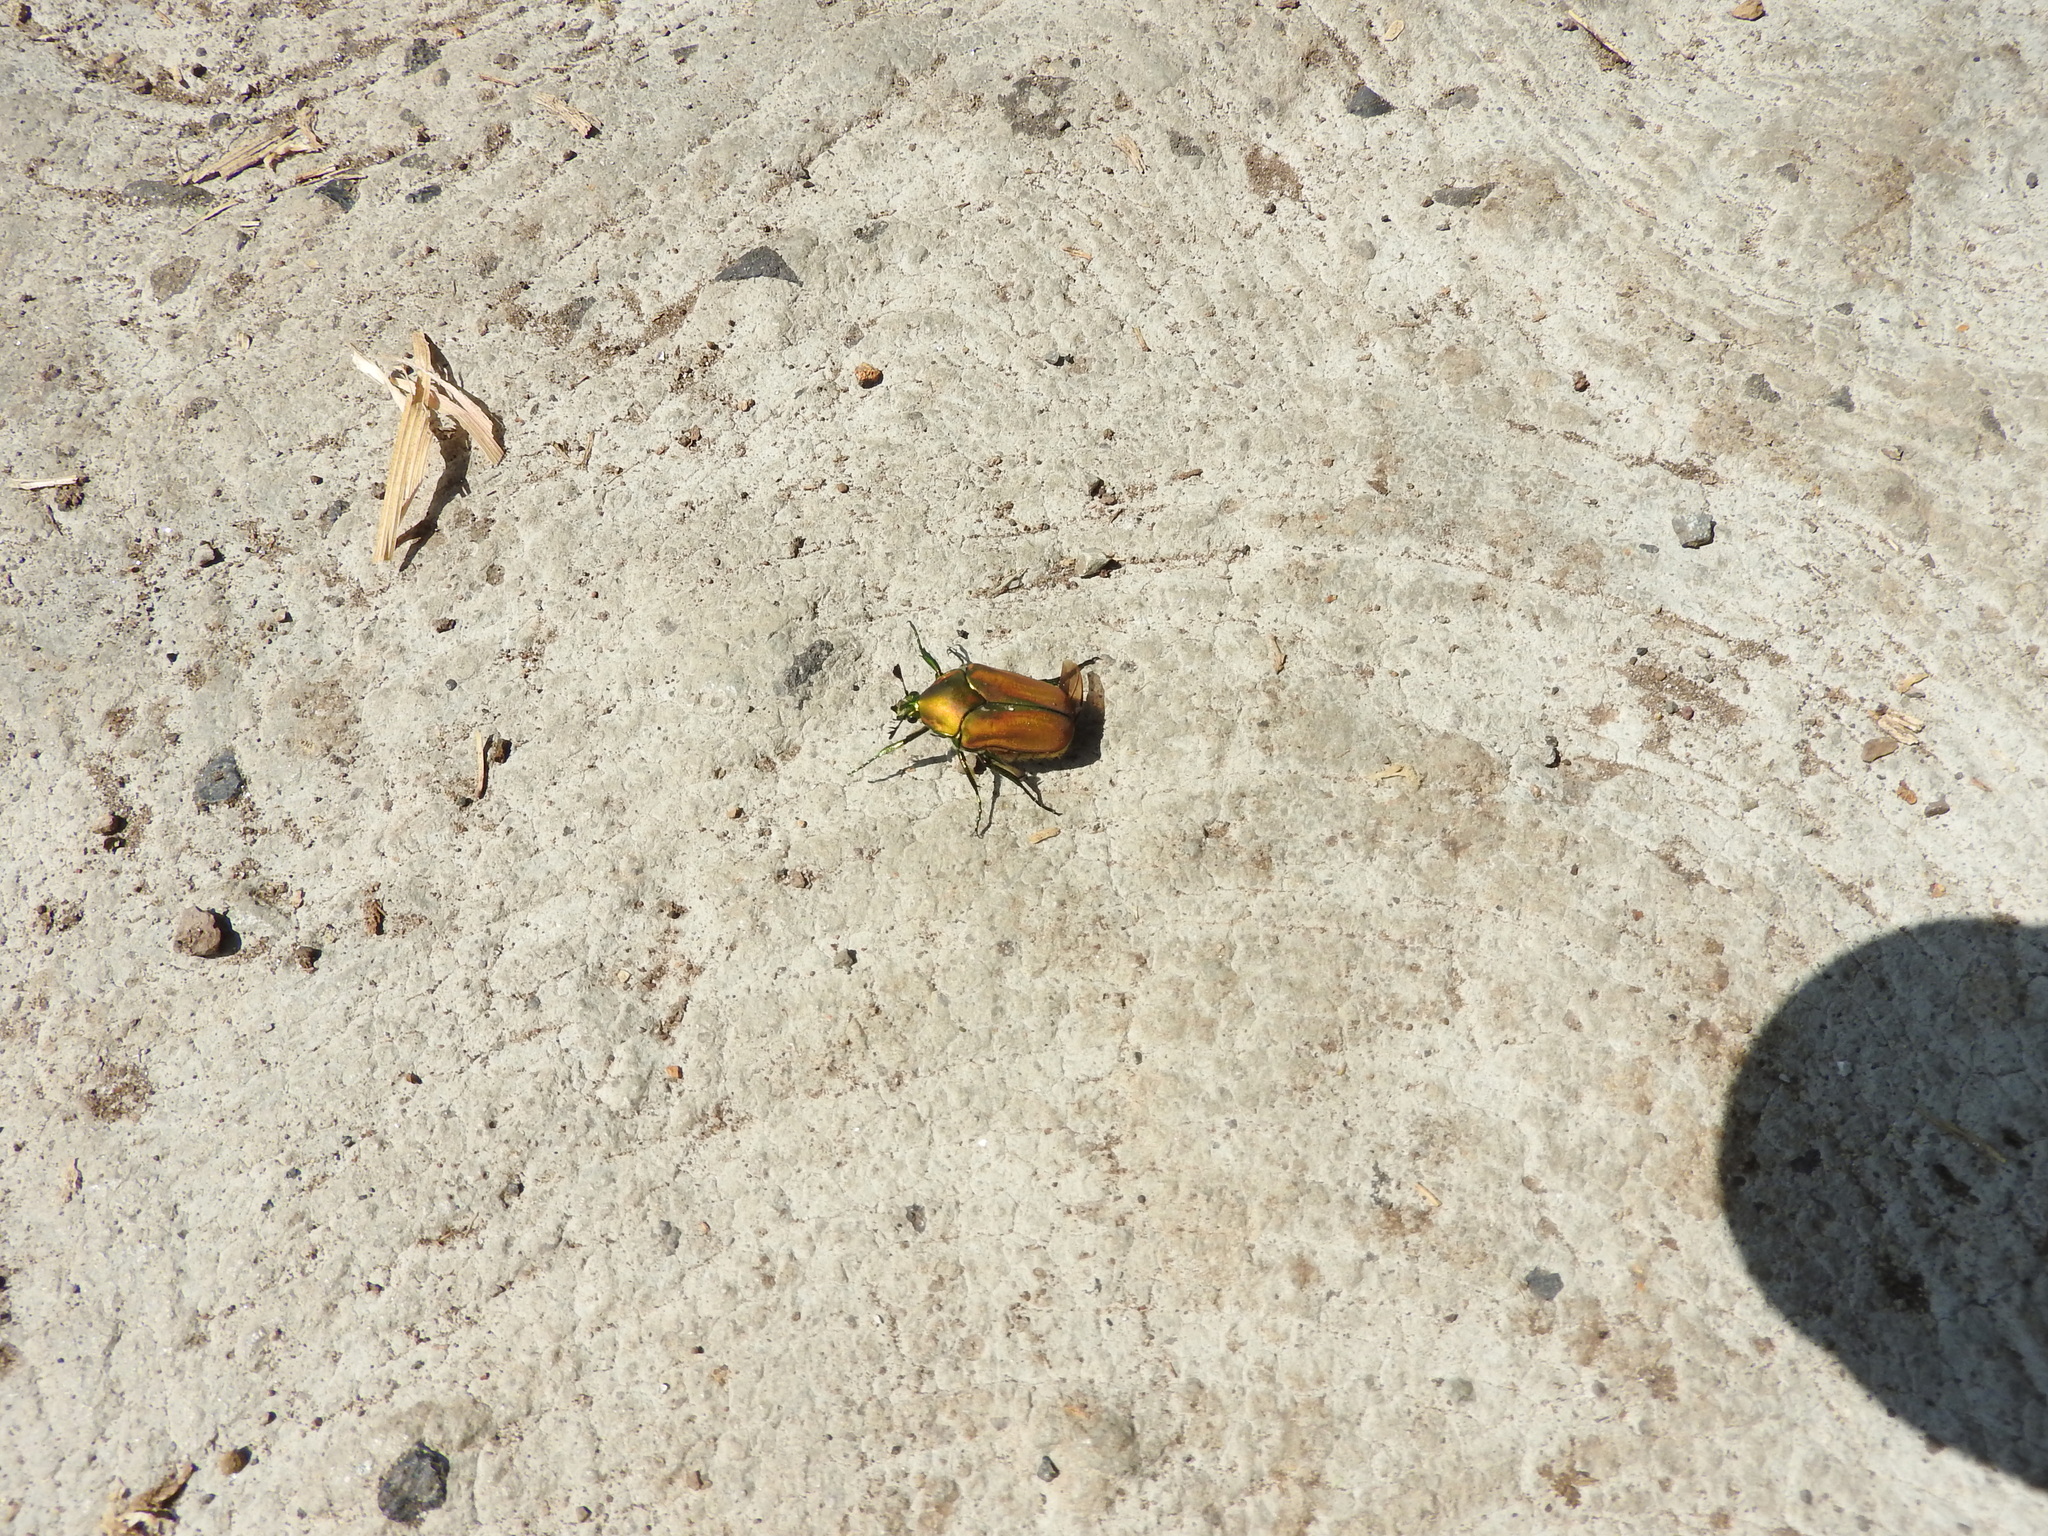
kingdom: Animalia
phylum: Arthropoda
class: Insecta
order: Coleoptera
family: Scarabaeidae
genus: Cotinis
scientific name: Cotinis mutabilis
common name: Figeater beetle
